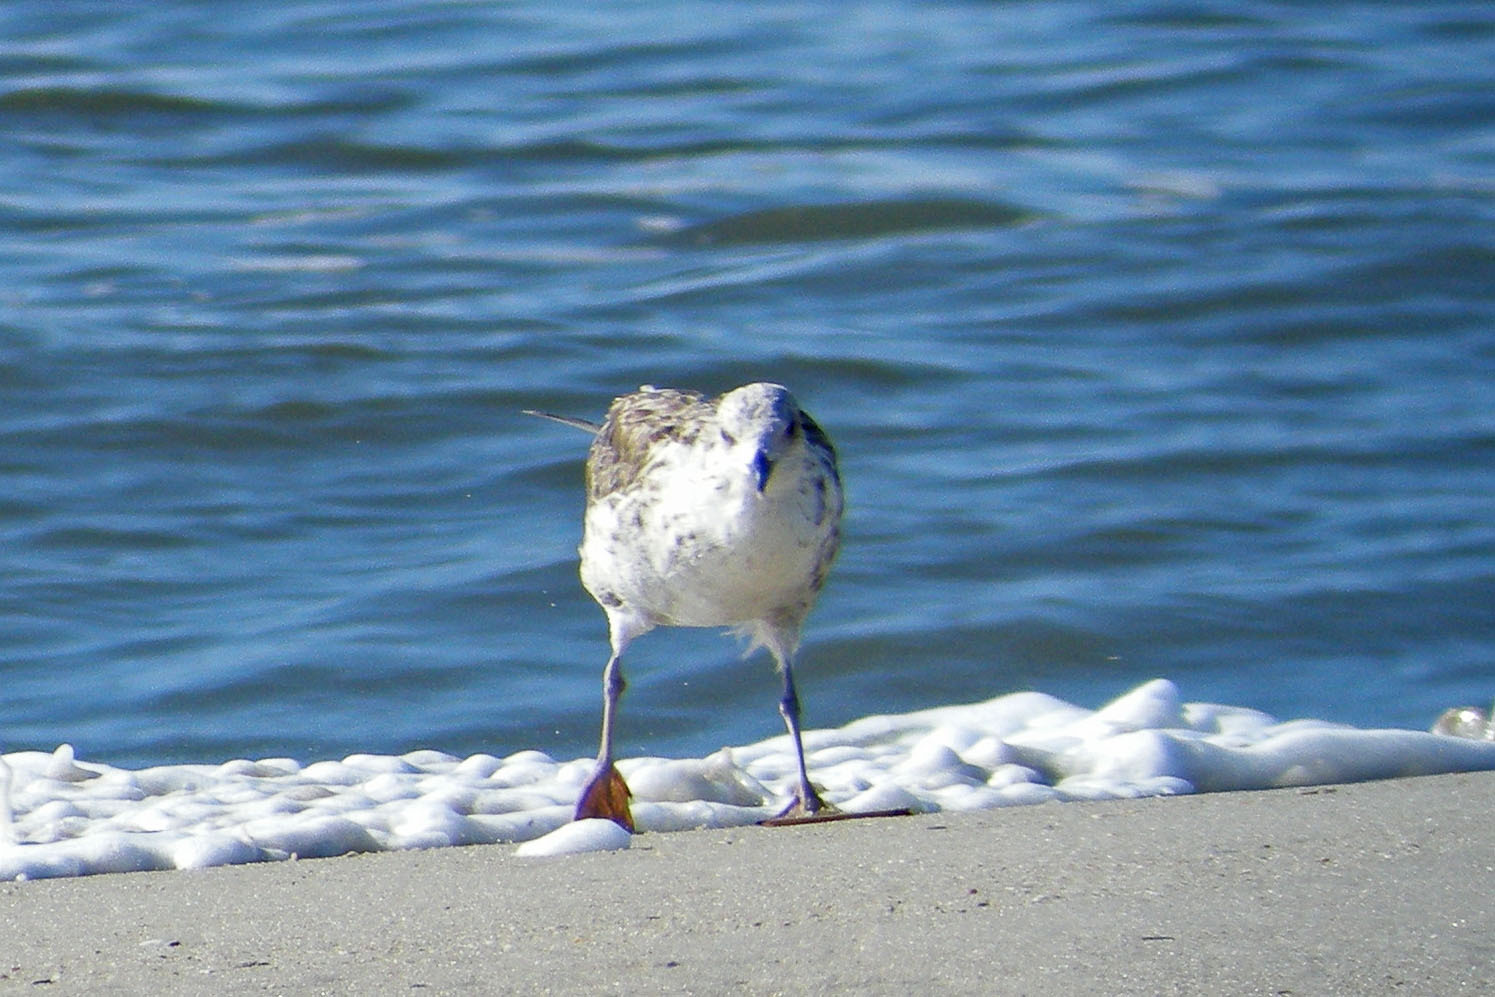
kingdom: Animalia
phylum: Chordata
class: Aves
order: Charadriiformes
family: Laridae
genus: Larus
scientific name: Larus fuscus
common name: Lesser black-backed gull
